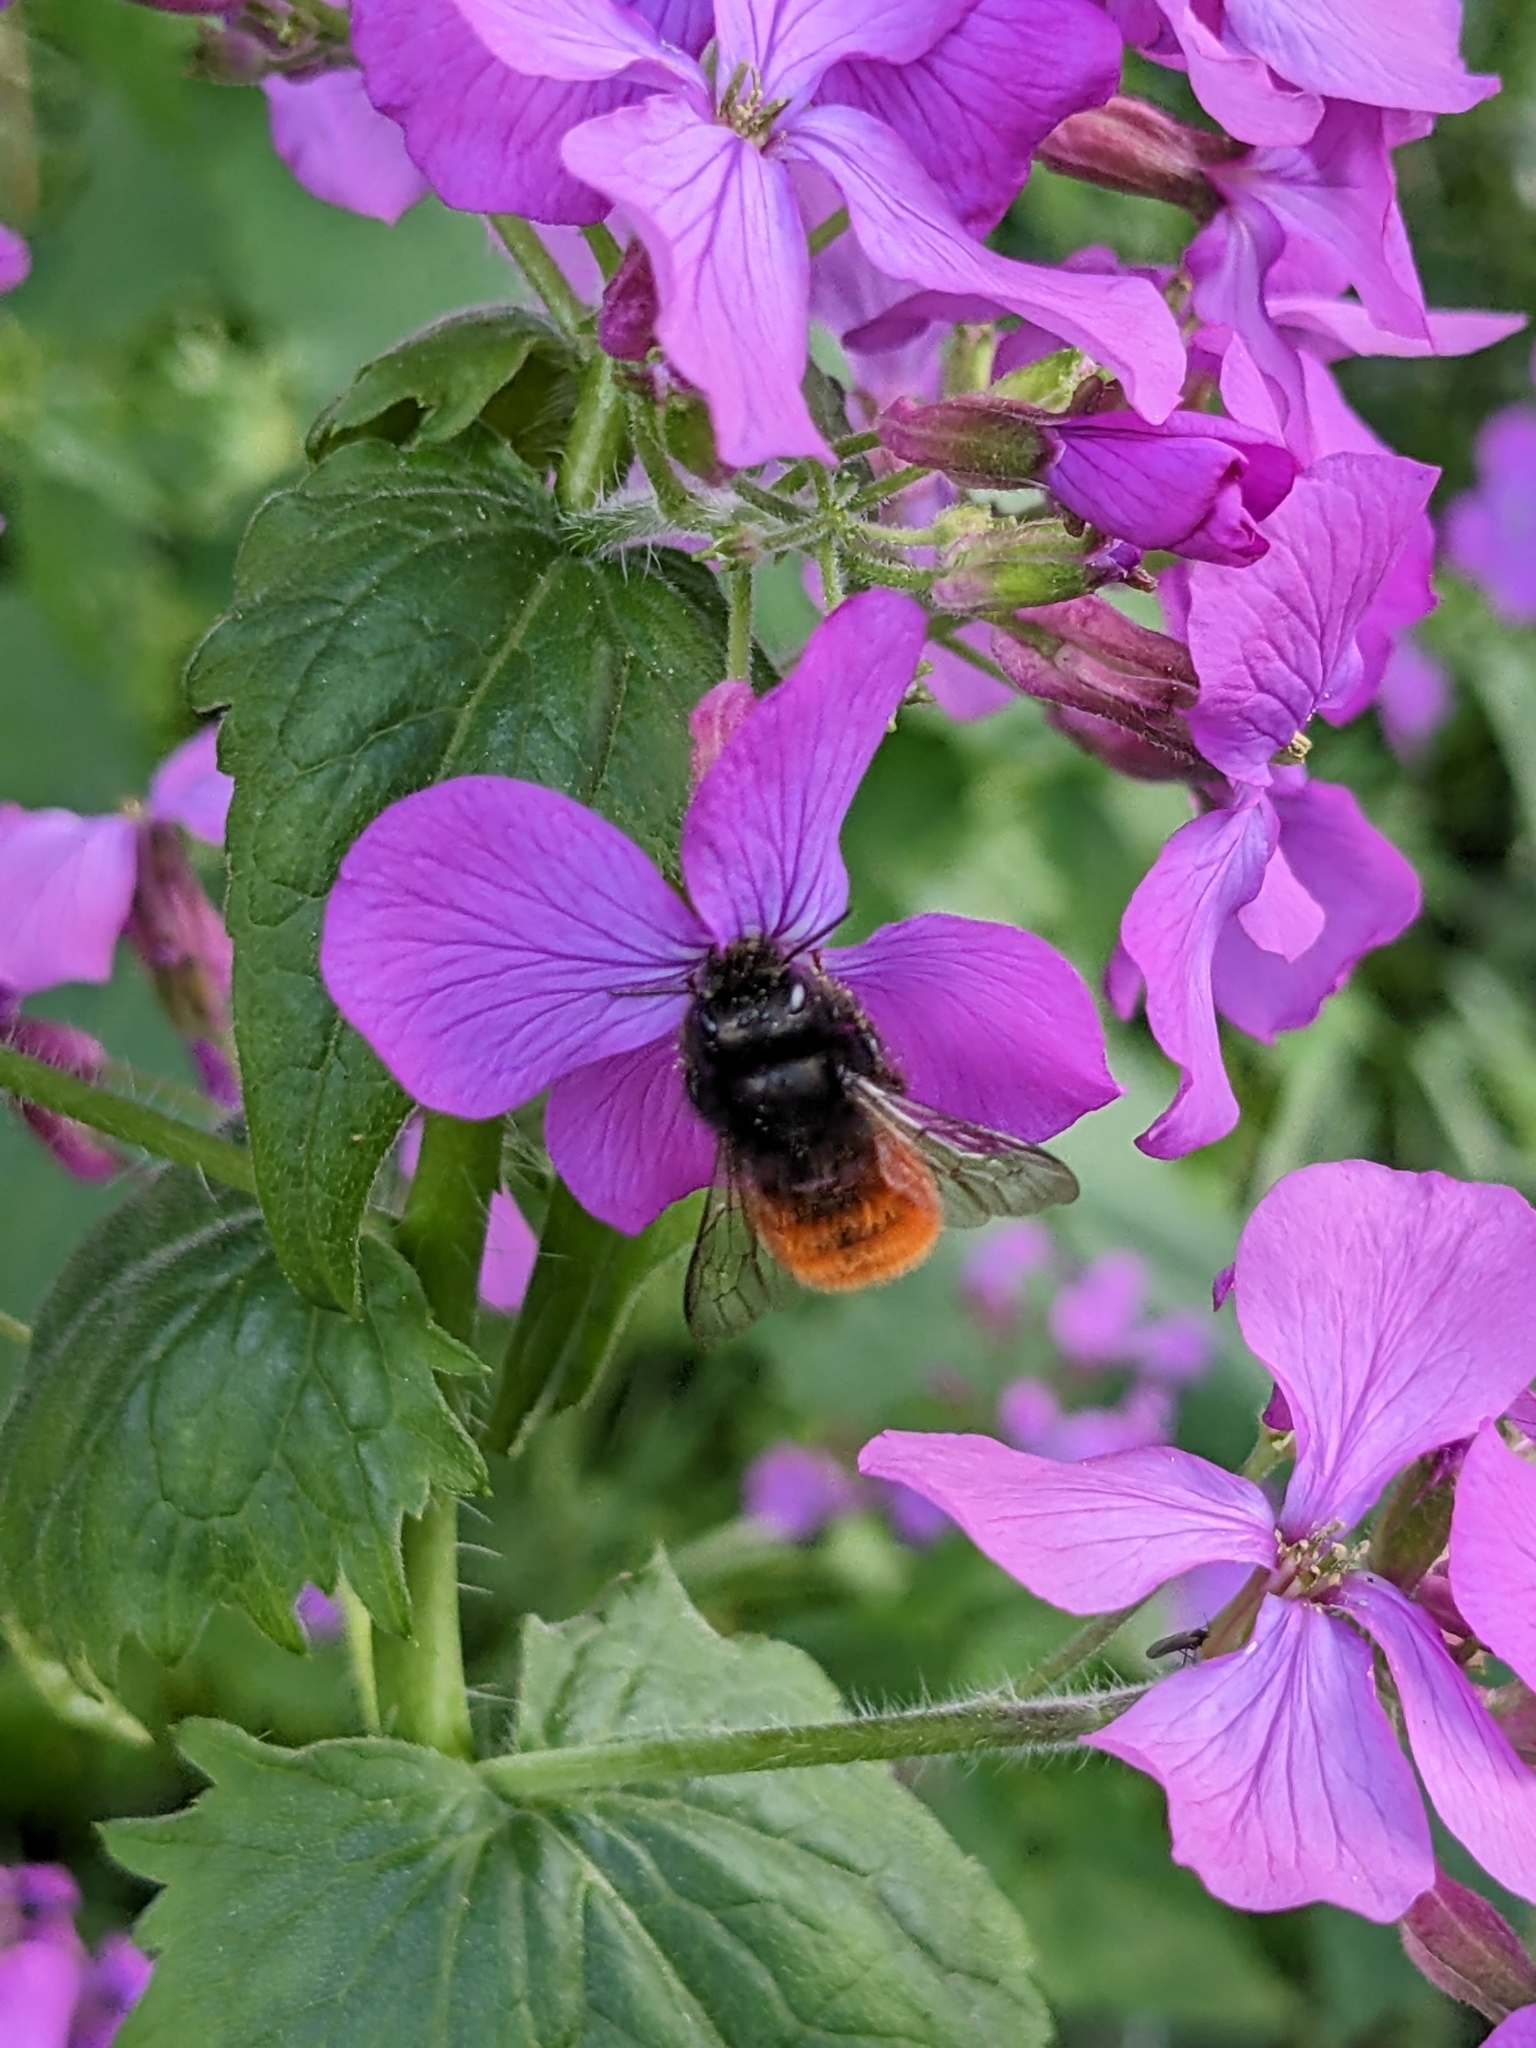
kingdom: Animalia
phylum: Arthropoda
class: Insecta
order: Hymenoptera
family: Megachilidae
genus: Osmia
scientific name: Osmia cornuta
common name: Mason bee
